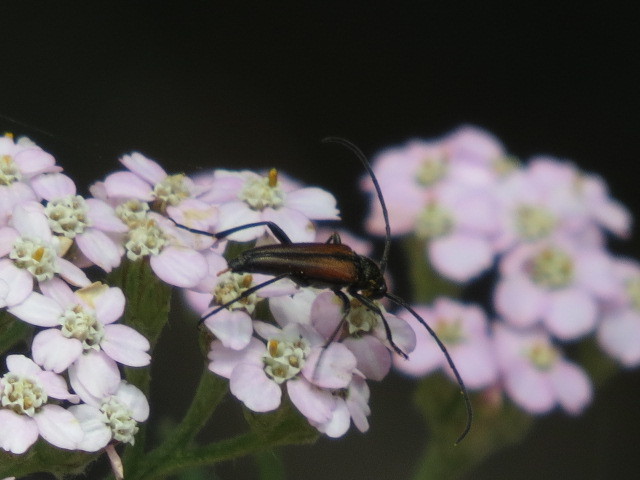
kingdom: Animalia
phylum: Arthropoda
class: Insecta
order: Coleoptera
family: Cerambycidae
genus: Stenurella
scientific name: Stenurella melanura
